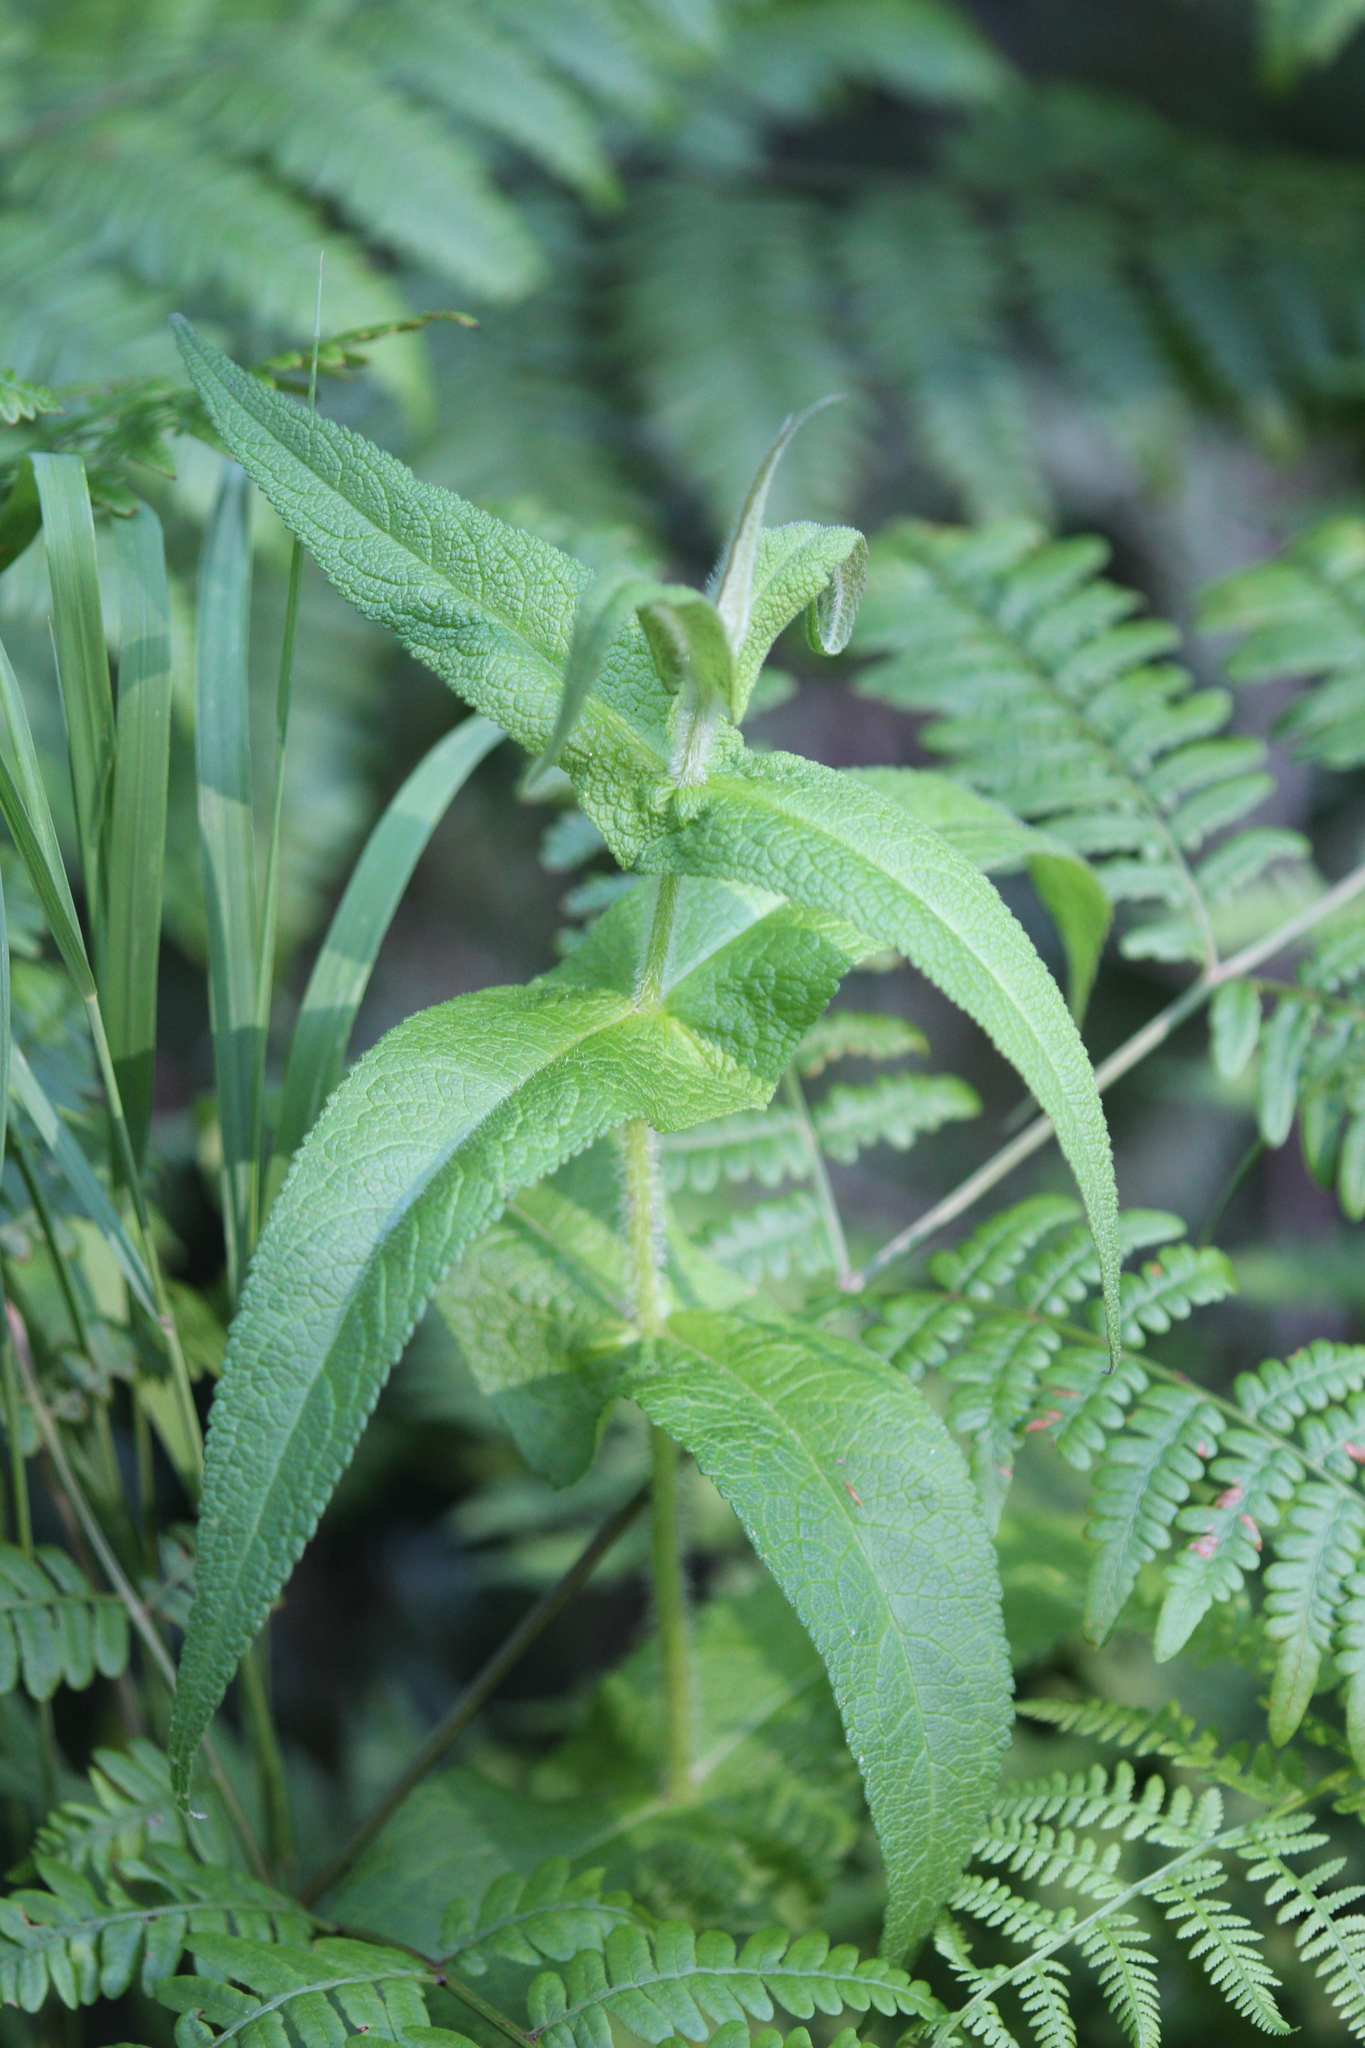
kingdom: Plantae
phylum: Tracheophyta
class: Magnoliopsida
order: Asterales
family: Asteraceae
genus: Eupatorium
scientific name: Eupatorium perfoliatum
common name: Boneset
